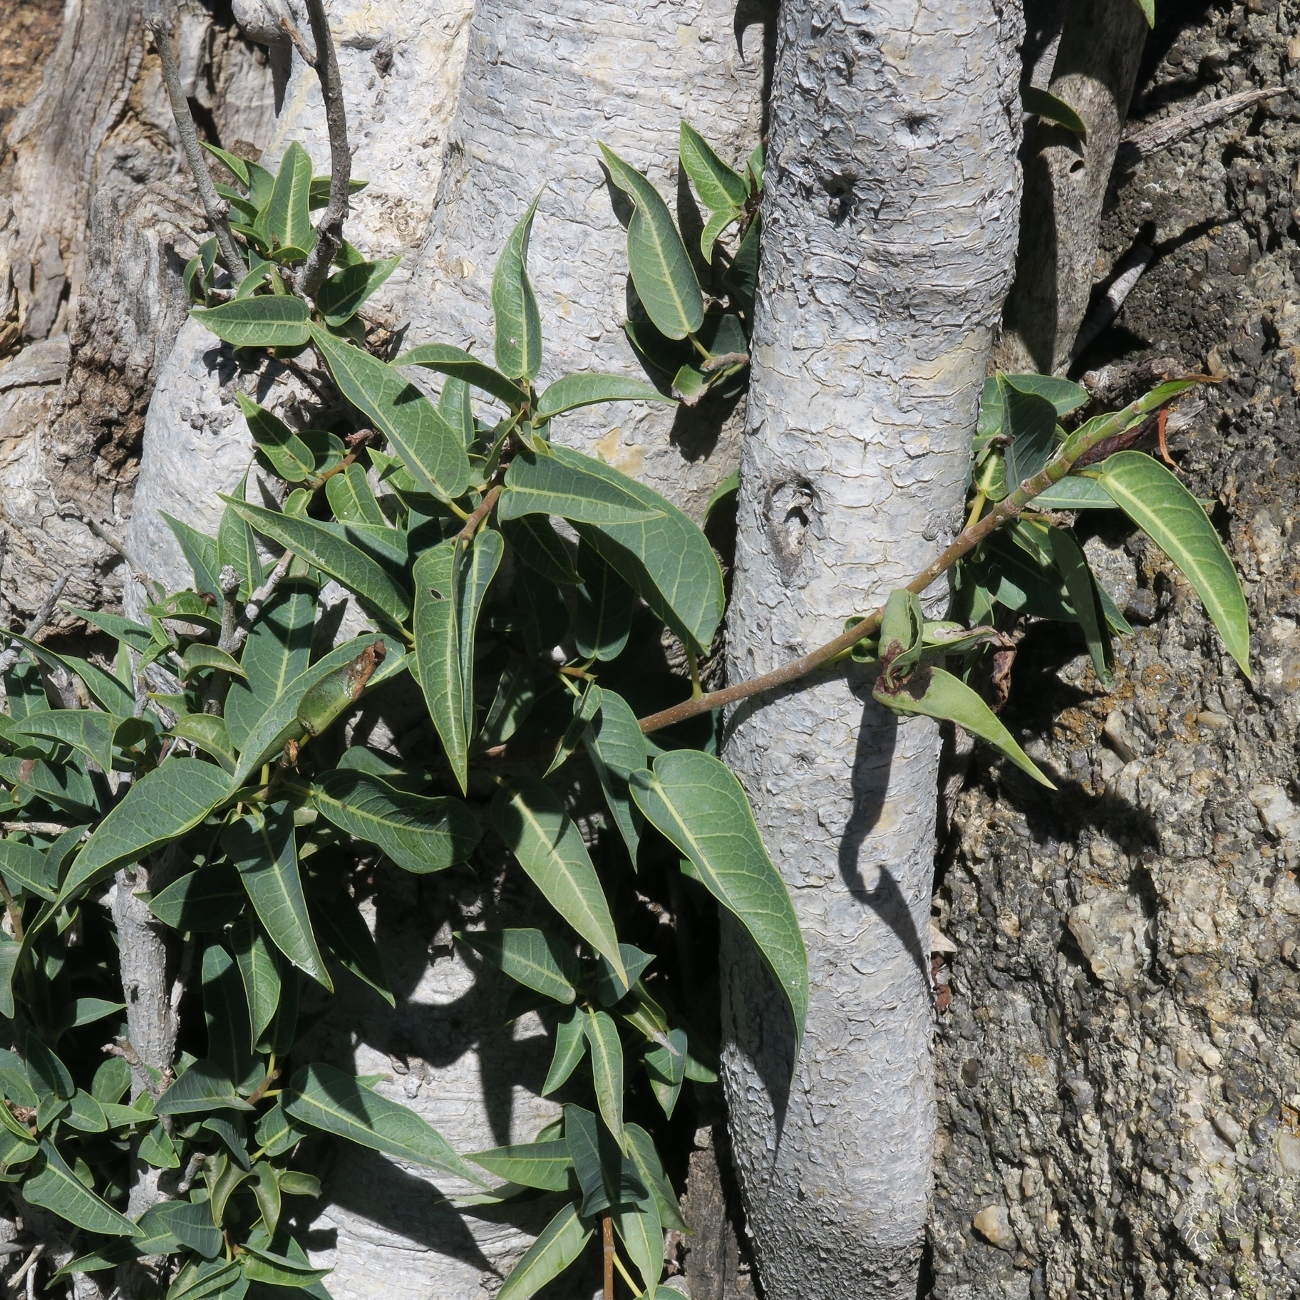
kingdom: Plantae
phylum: Tracheophyta
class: Magnoliopsida
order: Rosales
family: Moraceae
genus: Ficus
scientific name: Ficus cordata
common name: Namaqua rock fig
